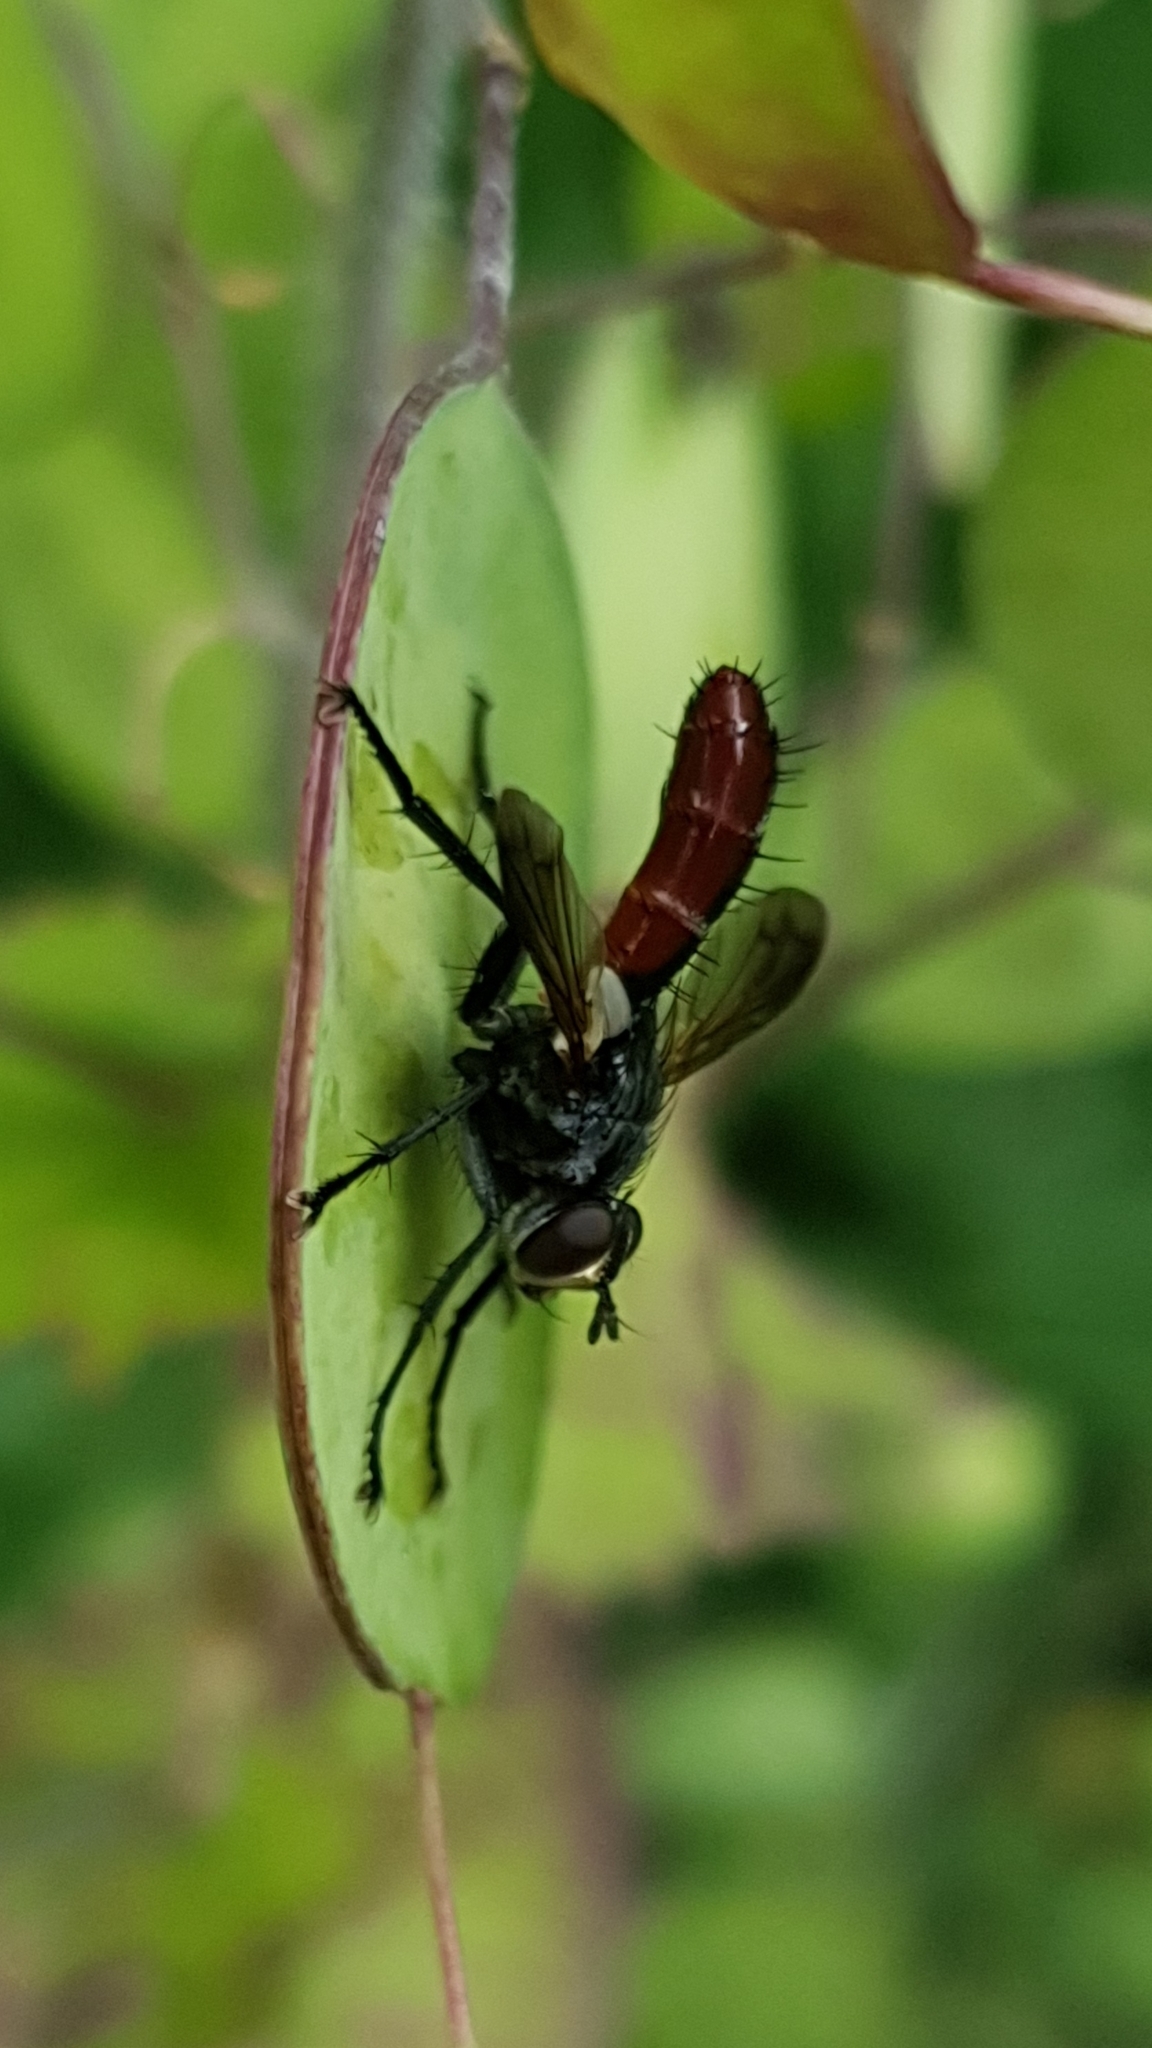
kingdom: Animalia
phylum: Arthropoda
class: Insecta
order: Diptera
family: Tachinidae
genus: Cylindromyia
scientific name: Cylindromyia bicolor
